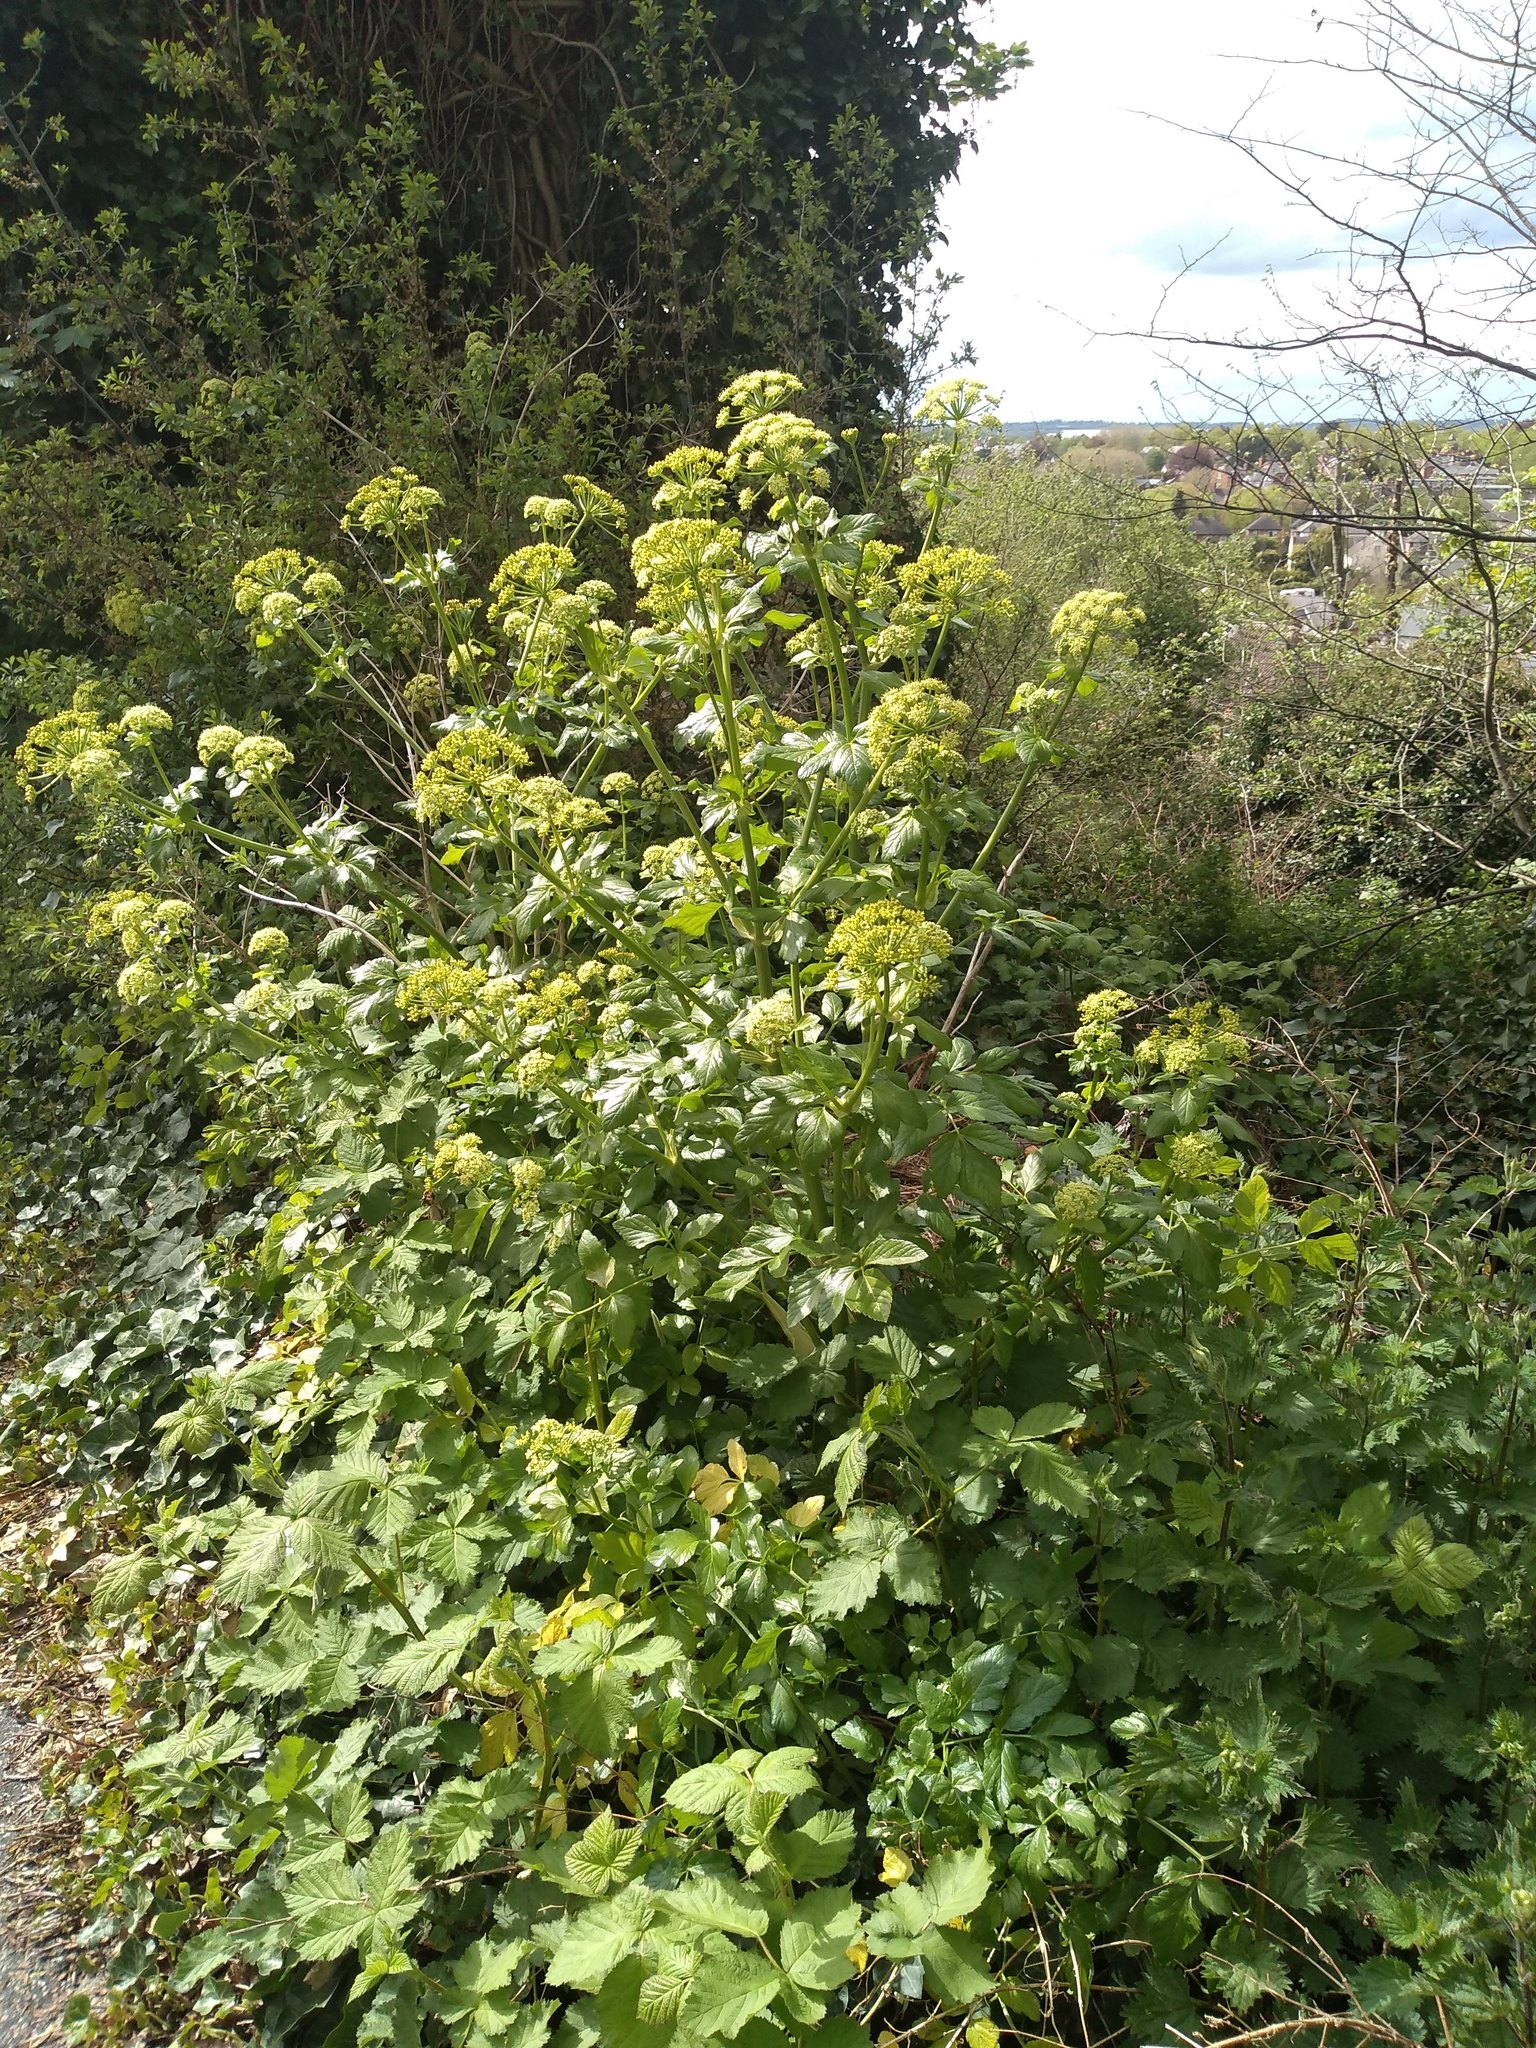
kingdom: Plantae
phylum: Tracheophyta
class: Magnoliopsida
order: Apiales
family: Apiaceae
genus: Smyrnium
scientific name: Smyrnium olusatrum
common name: Alexanders
